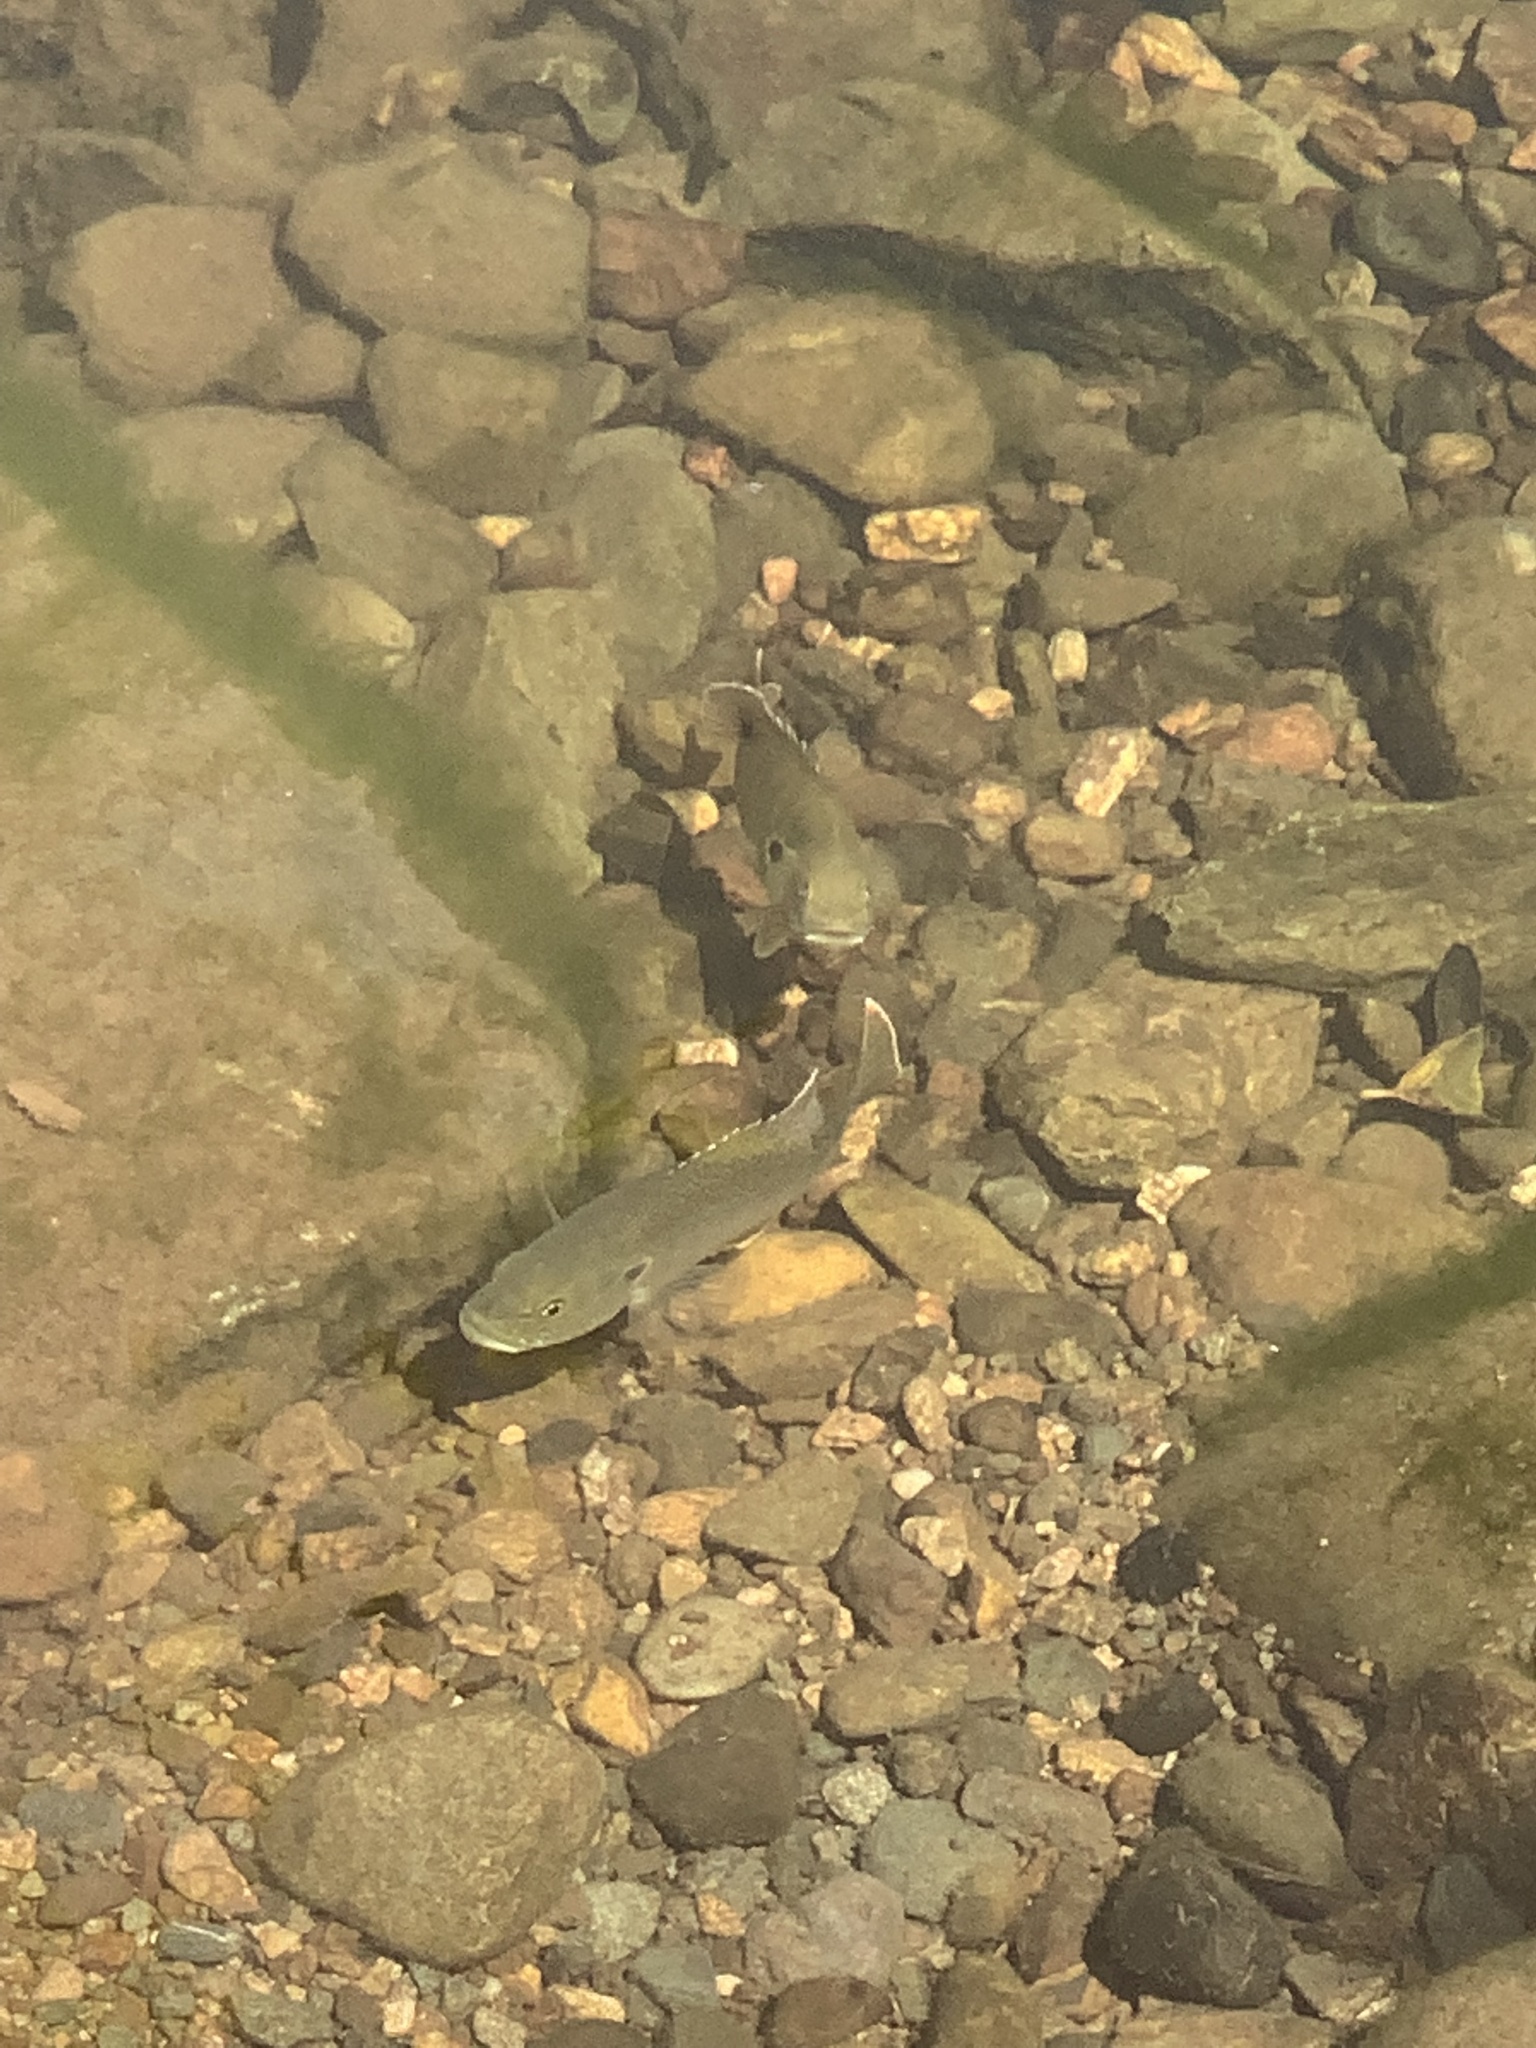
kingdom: Animalia
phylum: Chordata
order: Perciformes
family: Centrarchidae
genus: Lepomis
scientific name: Lepomis cyanellus
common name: Green sunfish
